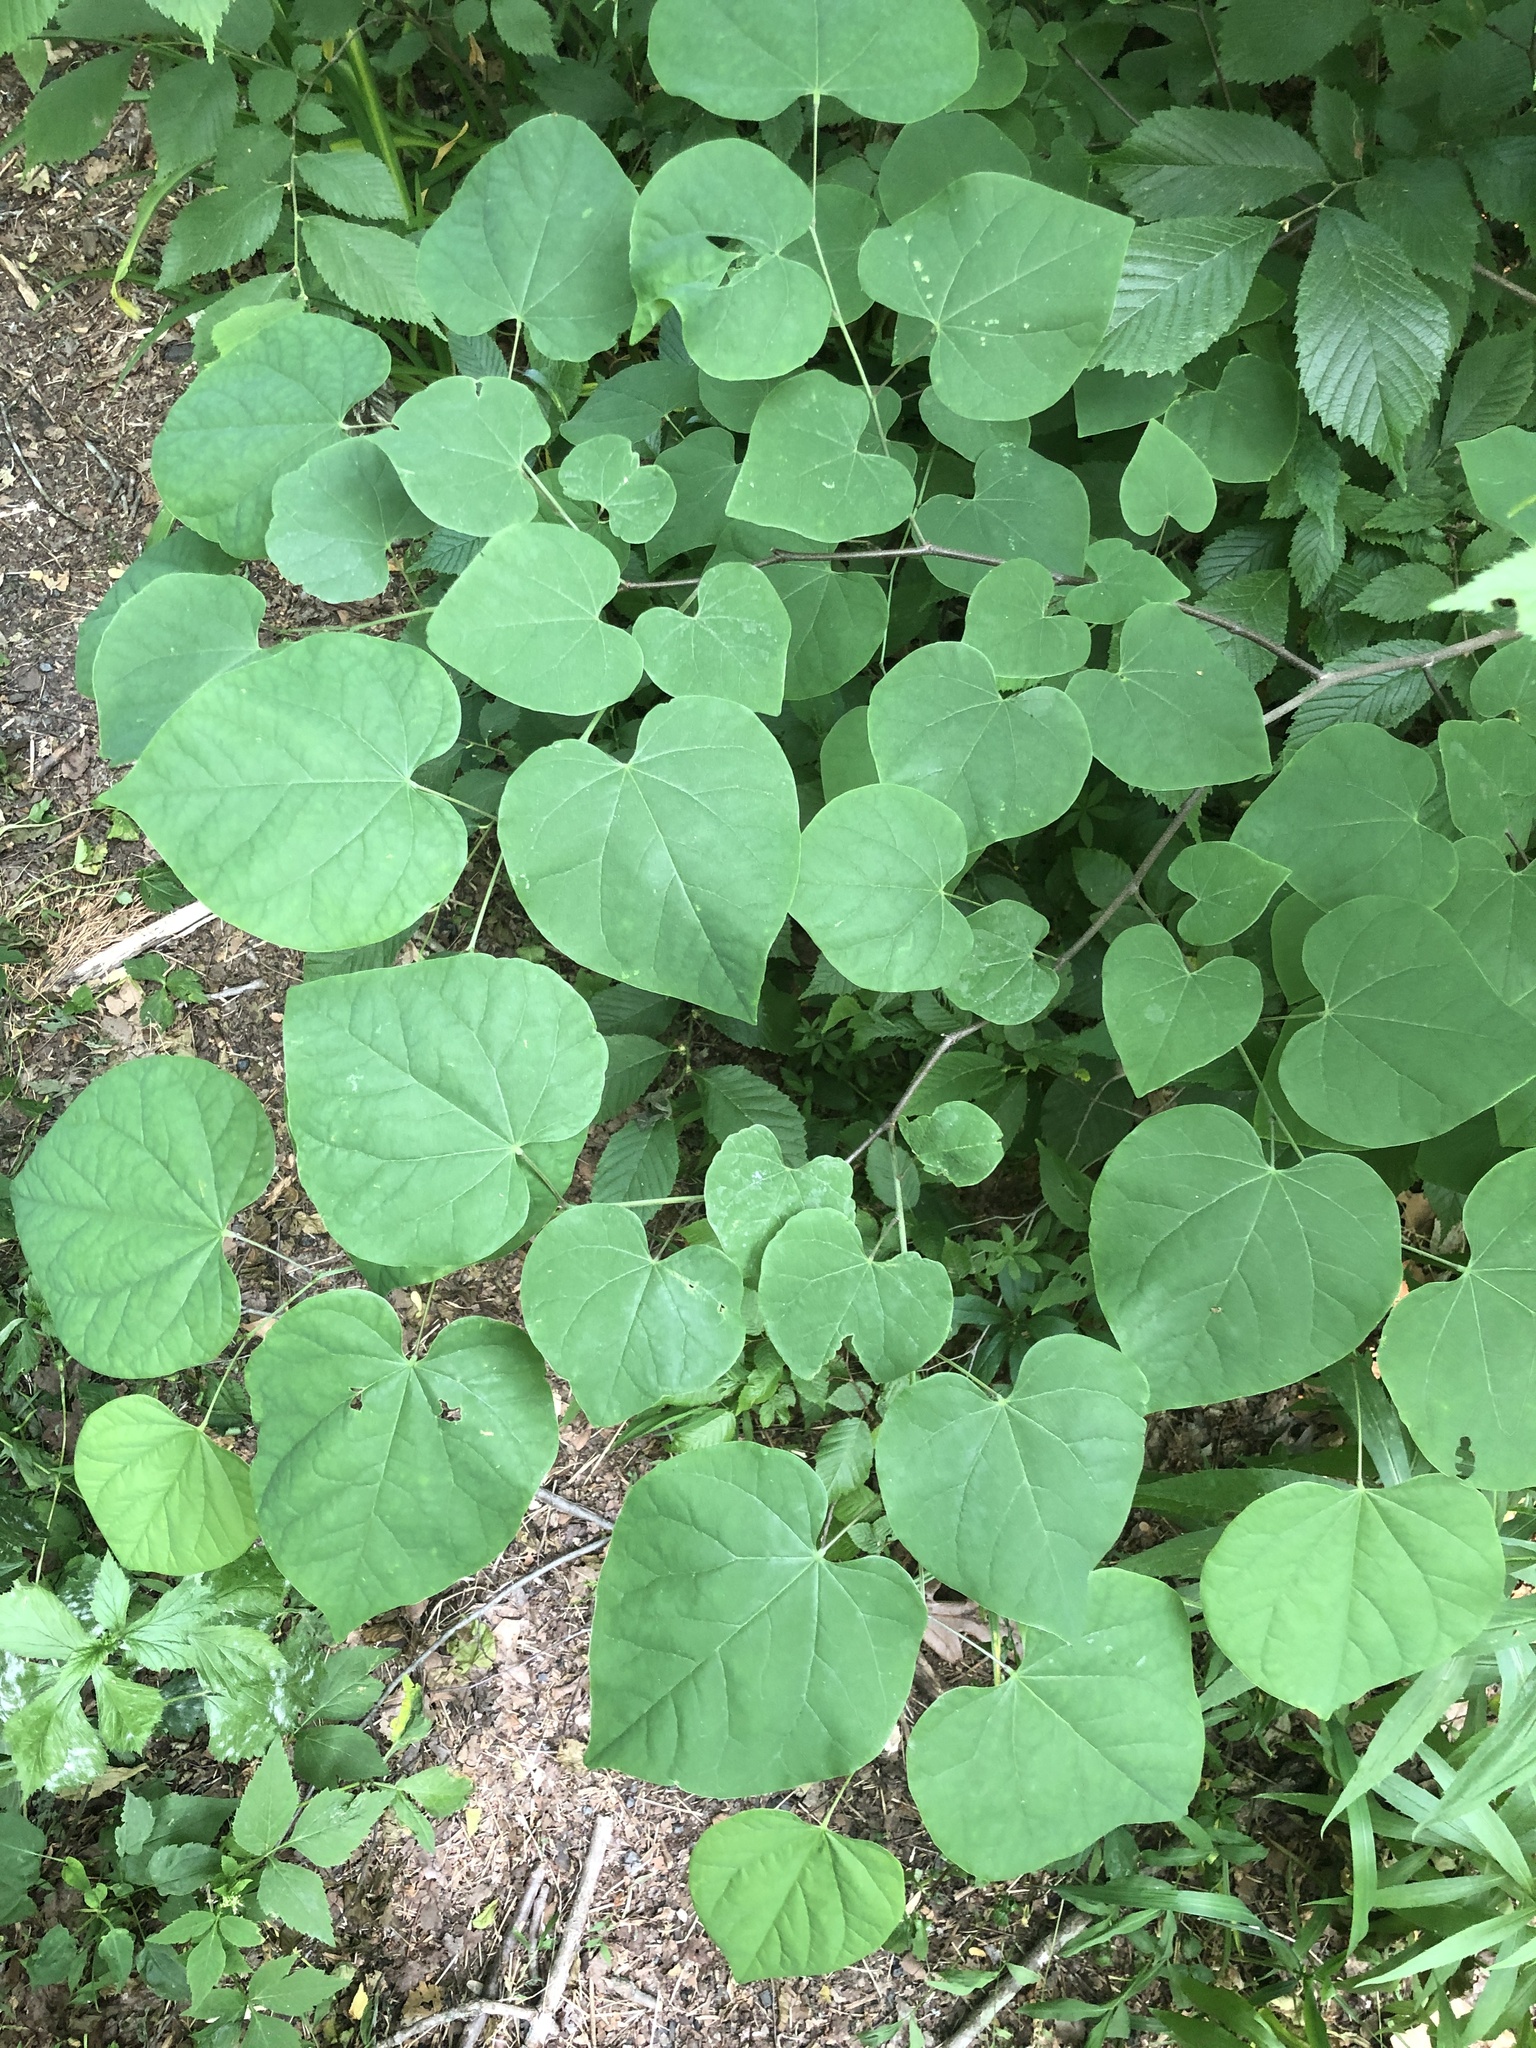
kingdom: Plantae
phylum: Tracheophyta
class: Magnoliopsida
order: Fabales
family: Fabaceae
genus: Cercis
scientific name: Cercis canadensis
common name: Eastern redbud
